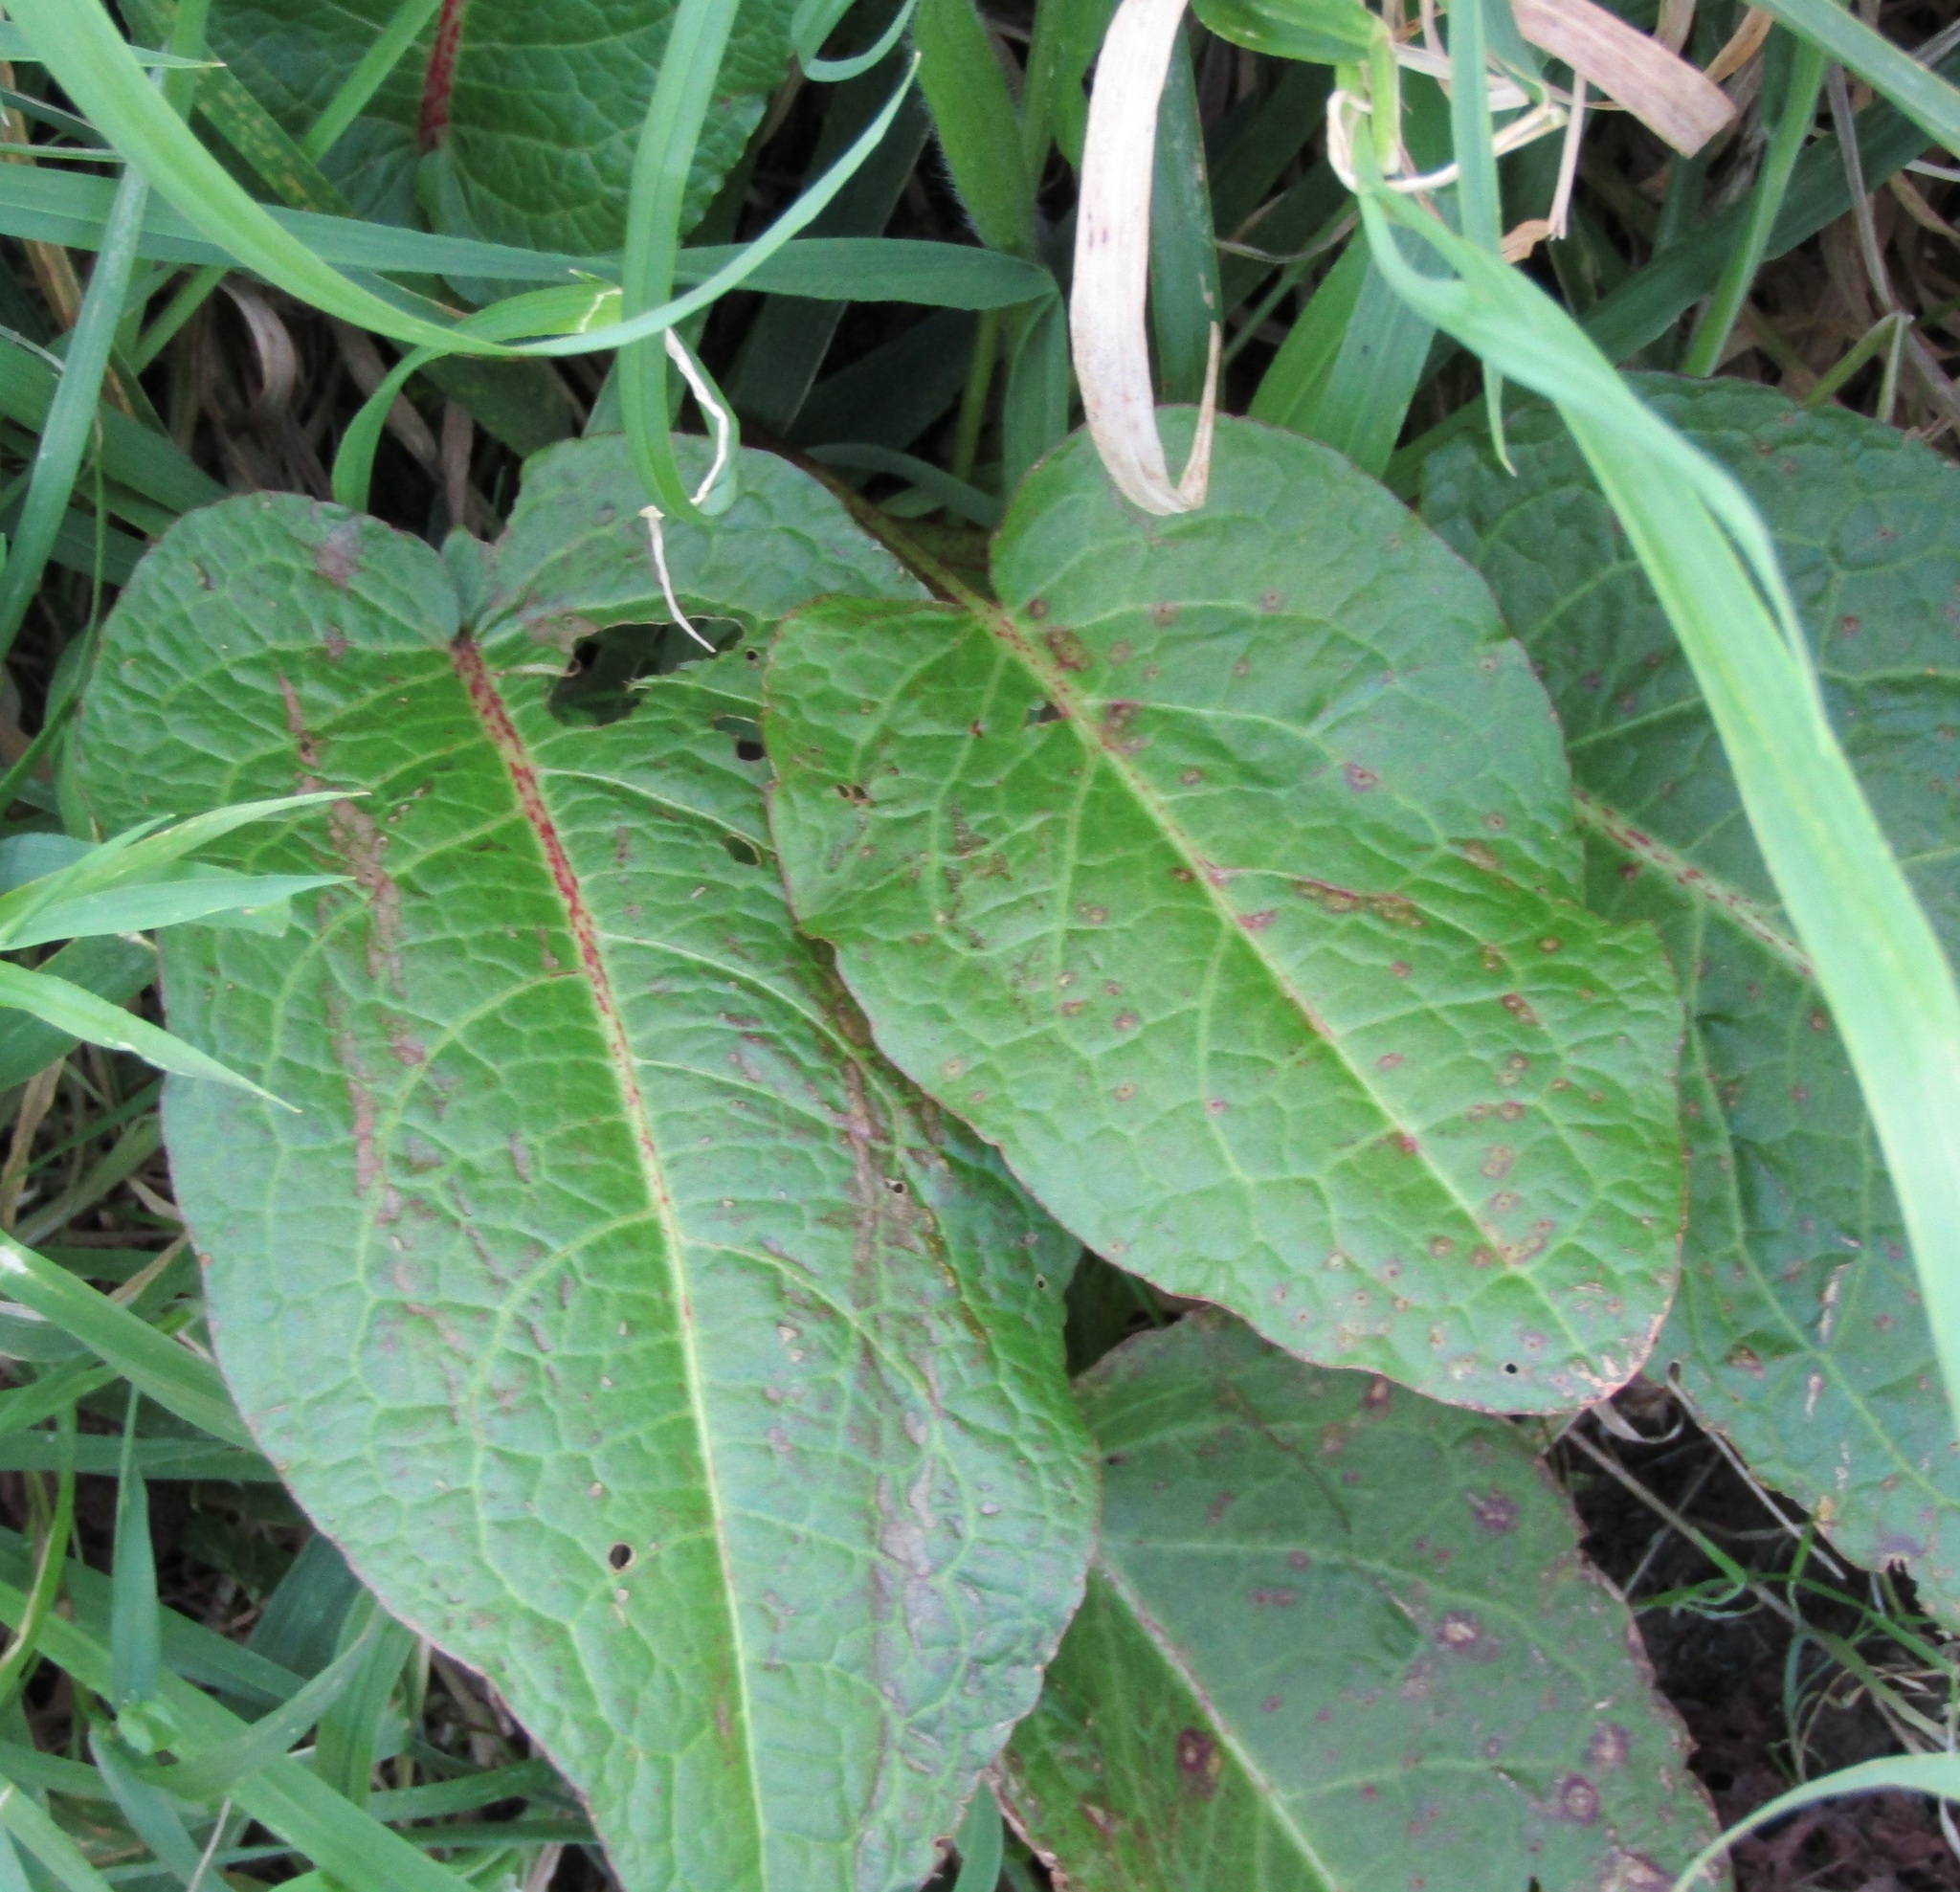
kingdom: Plantae
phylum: Tracheophyta
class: Magnoliopsida
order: Caryophyllales
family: Polygonaceae
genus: Rumex
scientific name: Rumex obtusifolius
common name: Bitter dock
